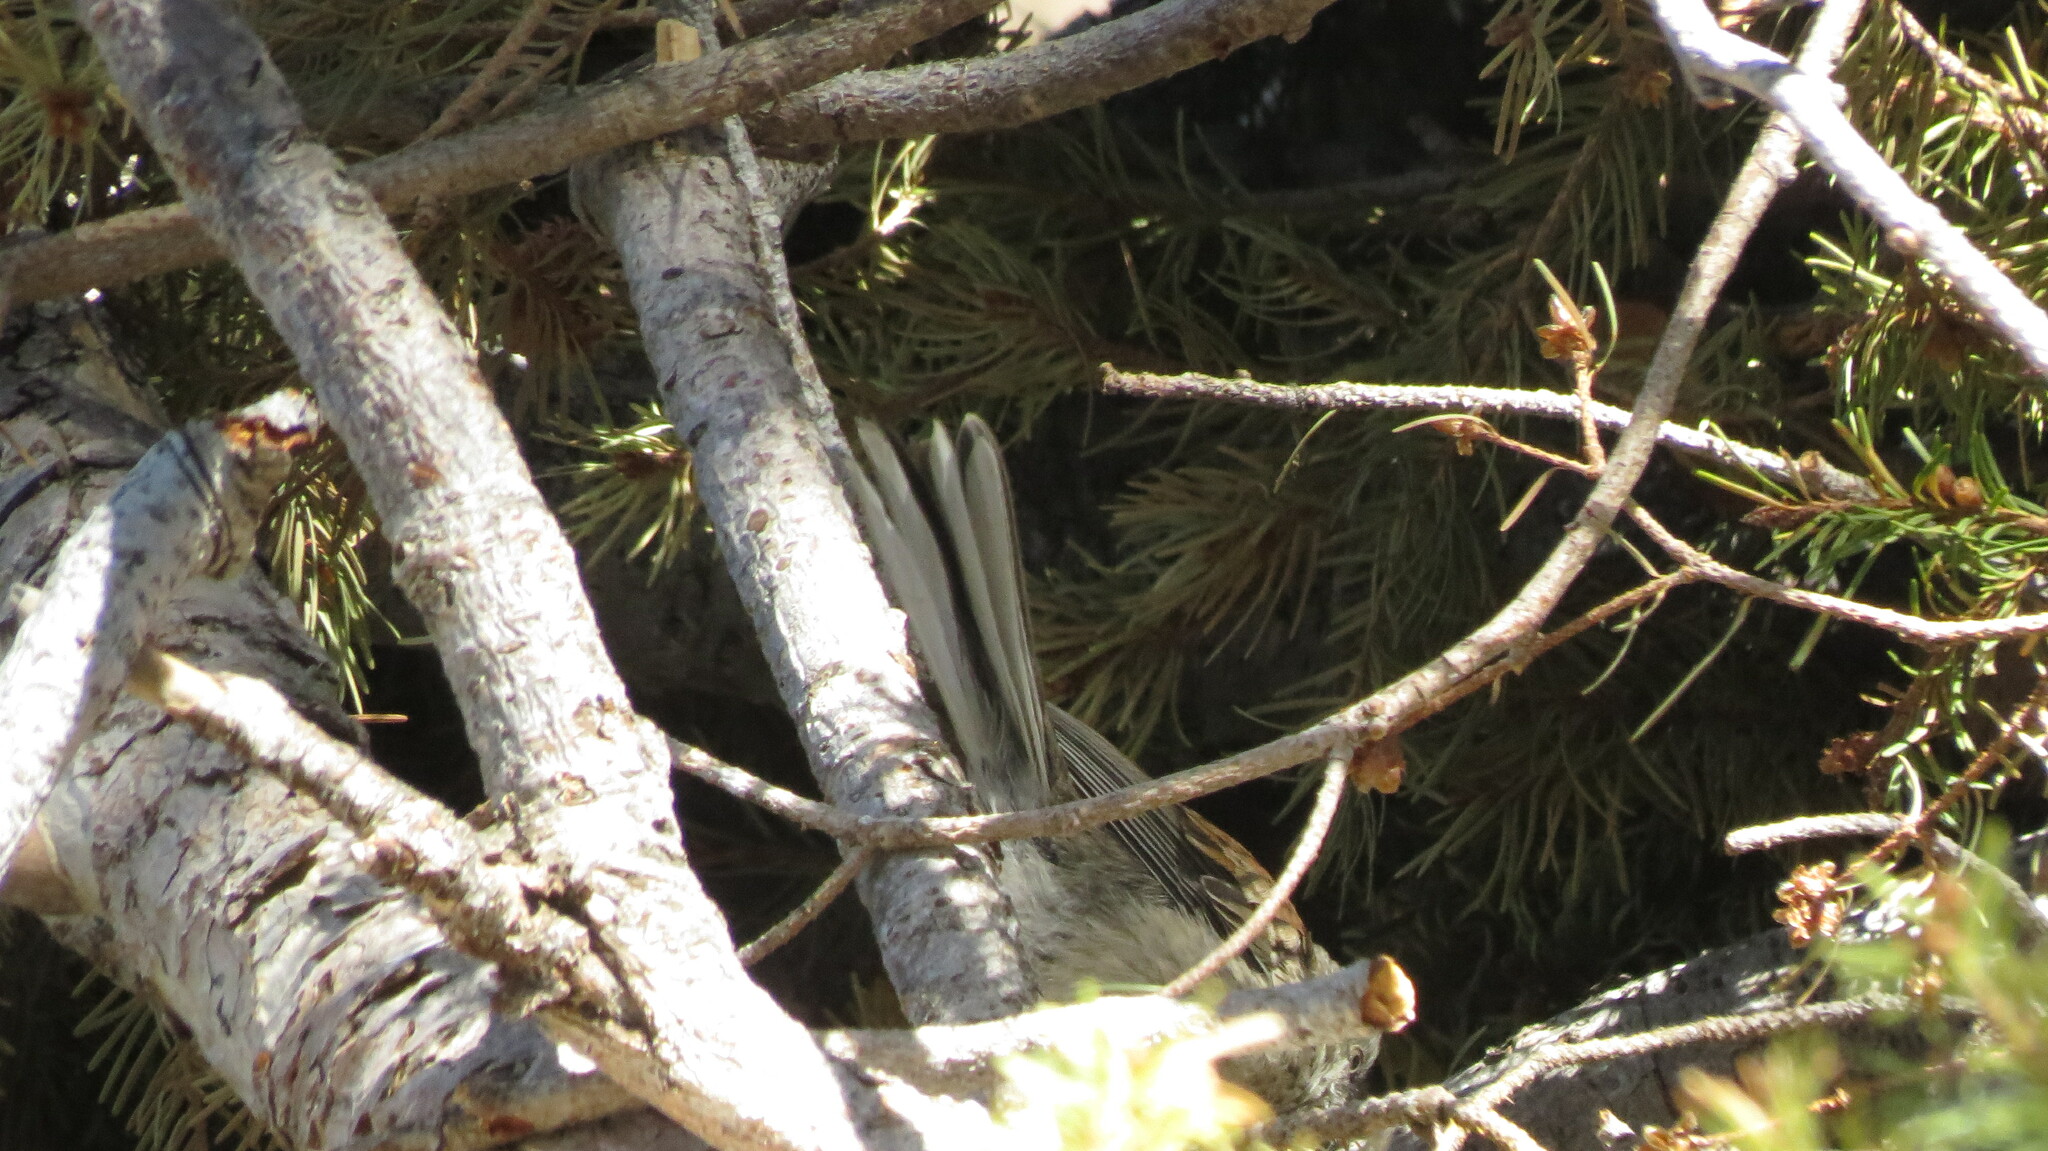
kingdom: Animalia
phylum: Chordata
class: Aves
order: Passeriformes
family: Passerellidae
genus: Junco
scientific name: Junco phaeonotus
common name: Yellow-eyed junco
